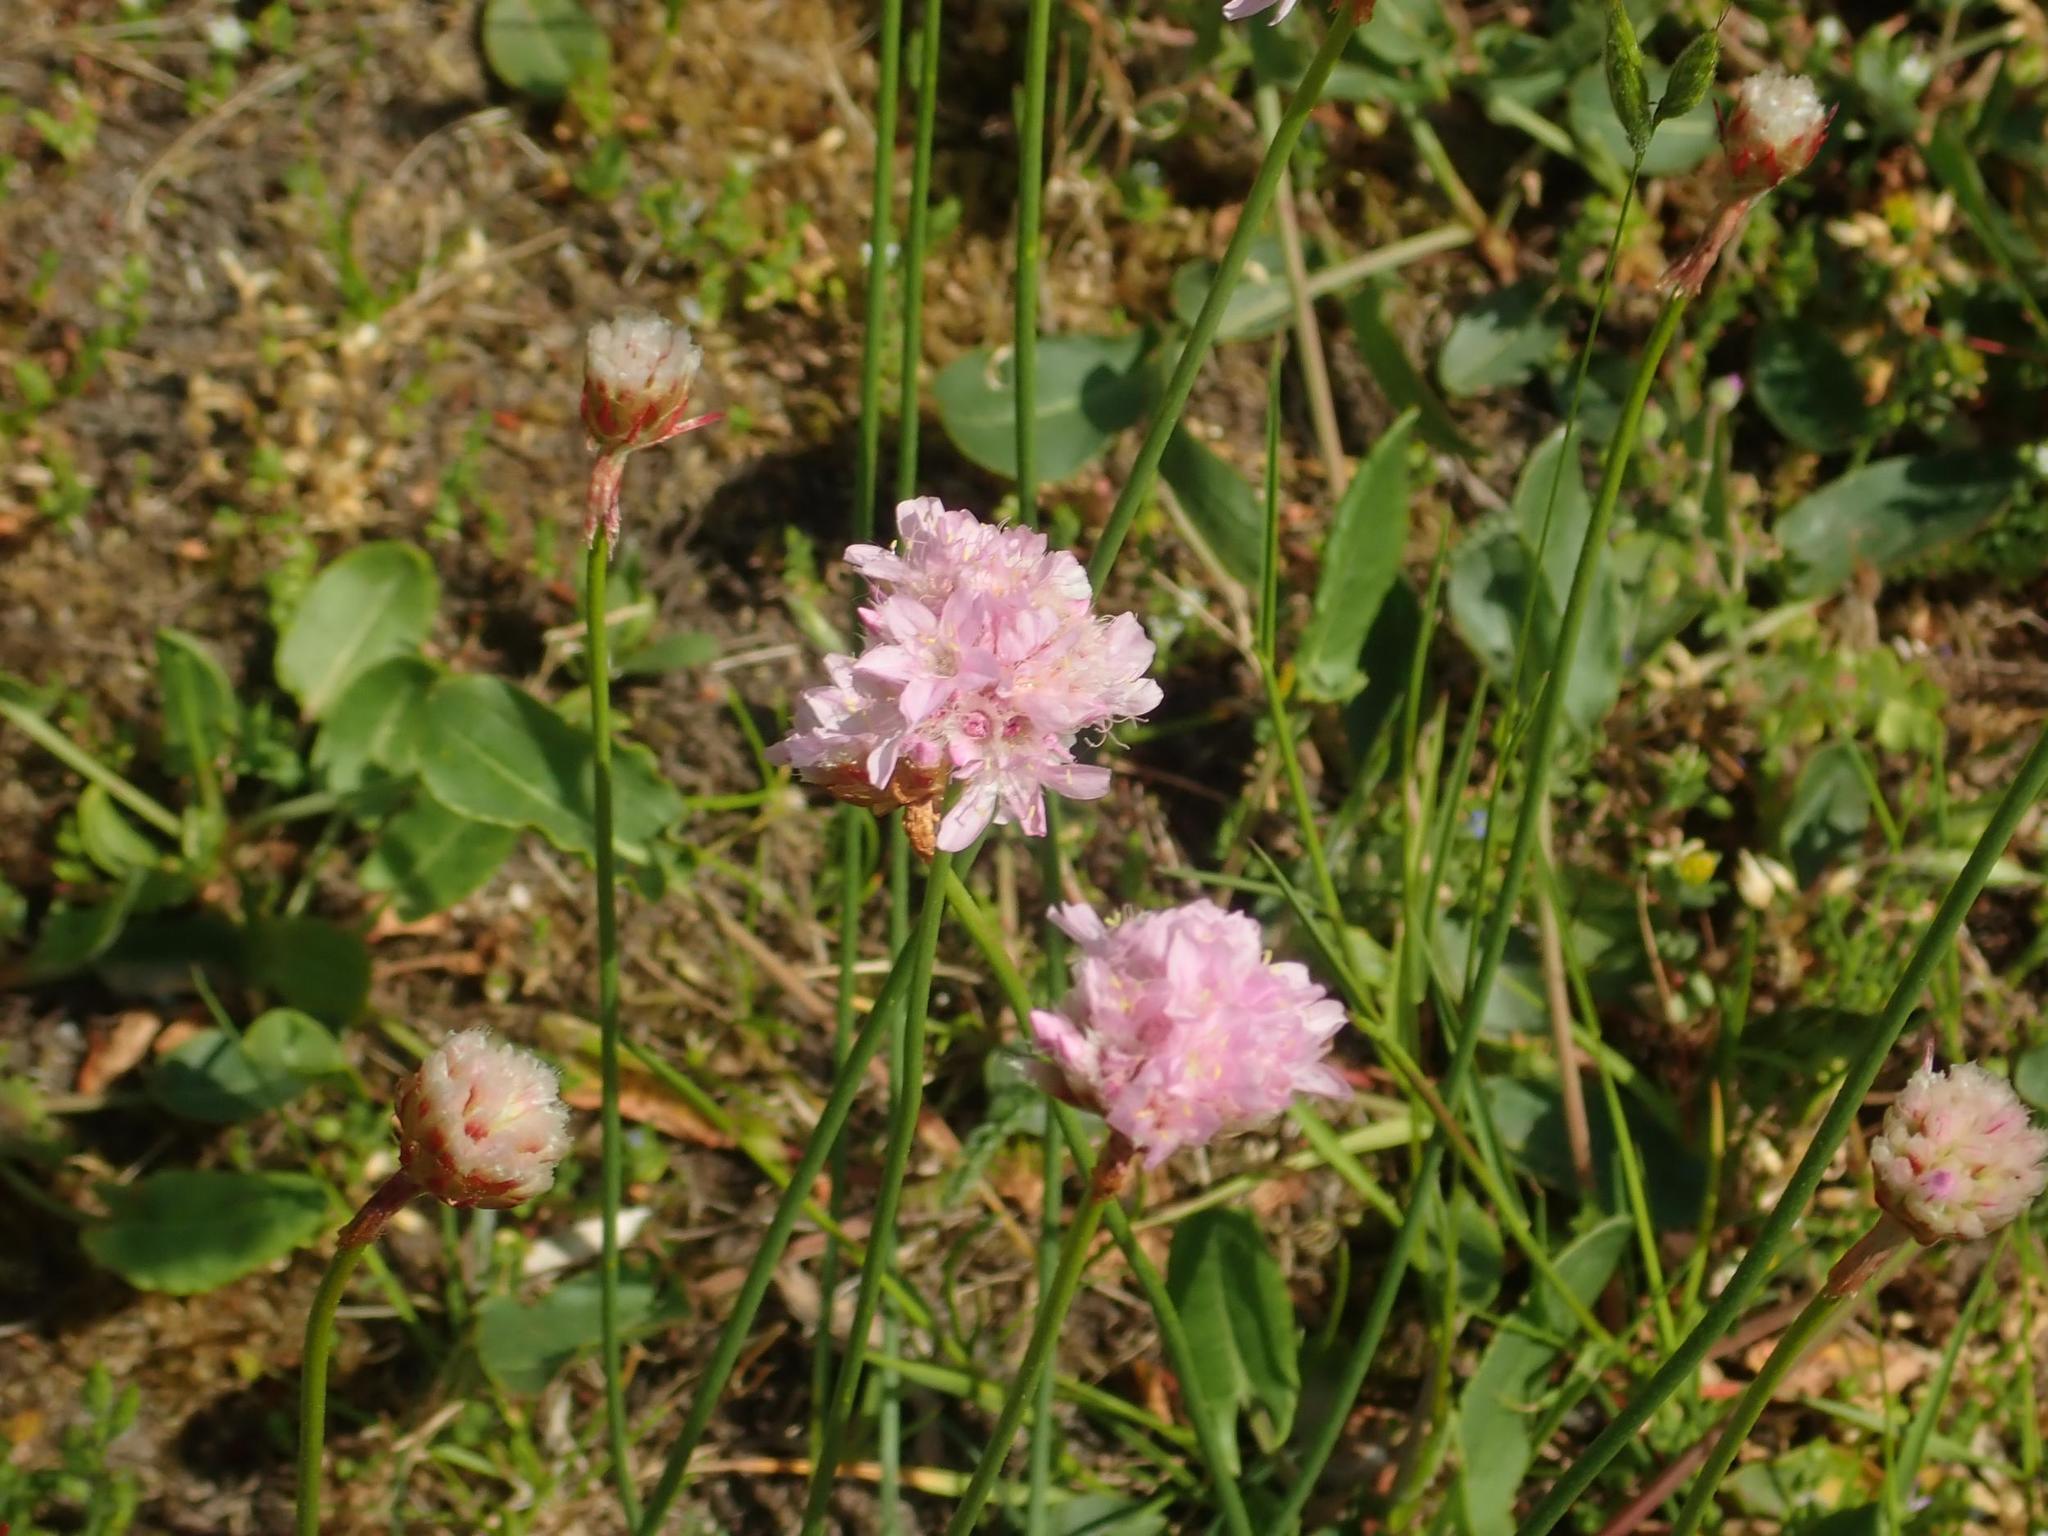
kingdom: Plantae
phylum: Tracheophyta
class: Magnoliopsida
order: Caryophyllales
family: Plumbaginaceae
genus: Armeria
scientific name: Armeria maritima
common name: Thrift
